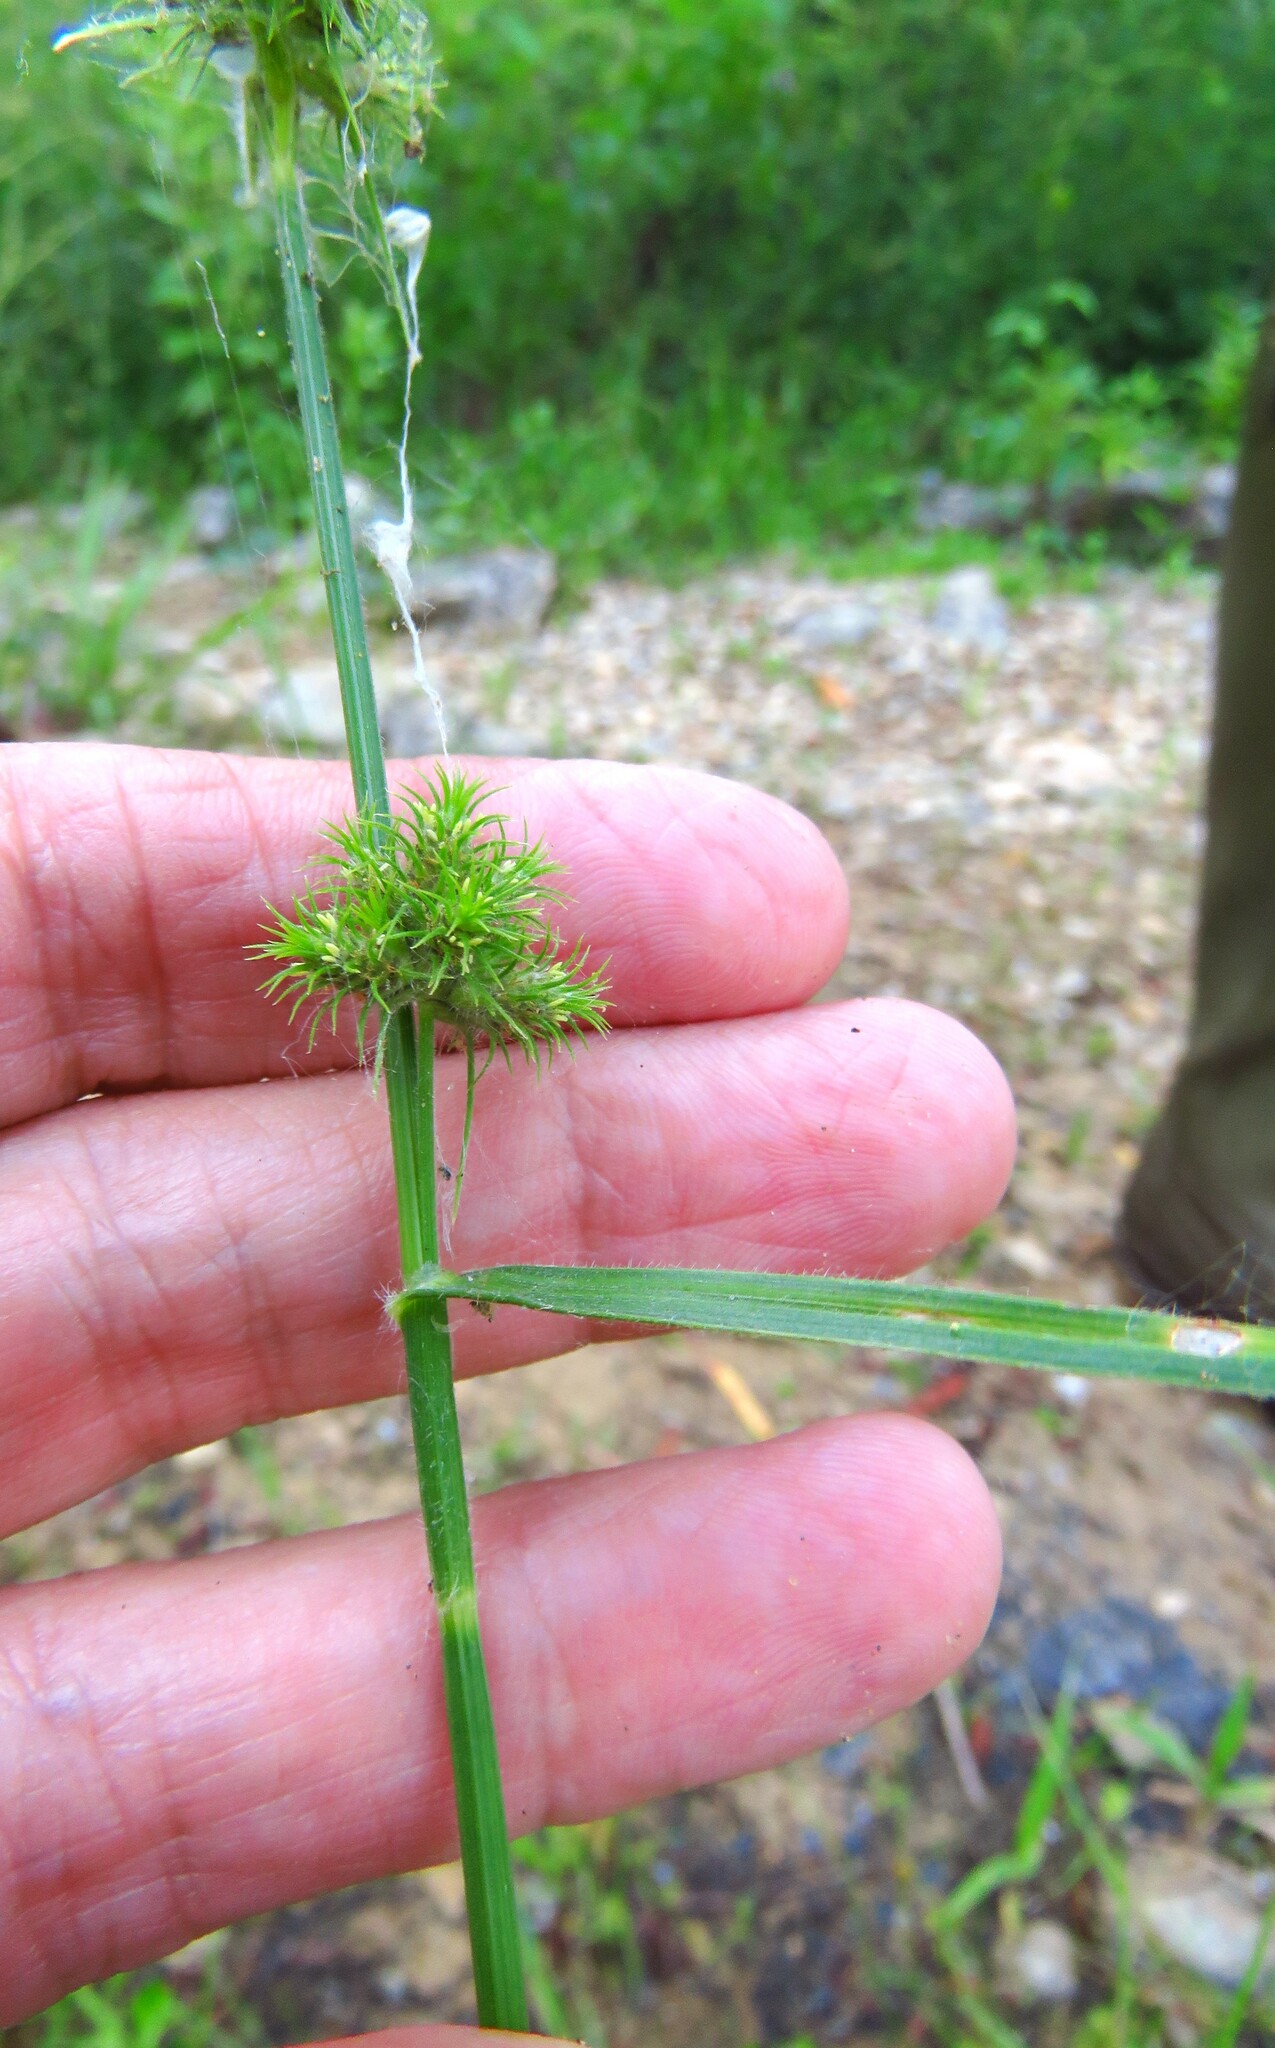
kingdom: Plantae
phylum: Tracheophyta
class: Liliopsida
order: Poales
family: Cyperaceae
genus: Fuirena
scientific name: Fuirena simplex
